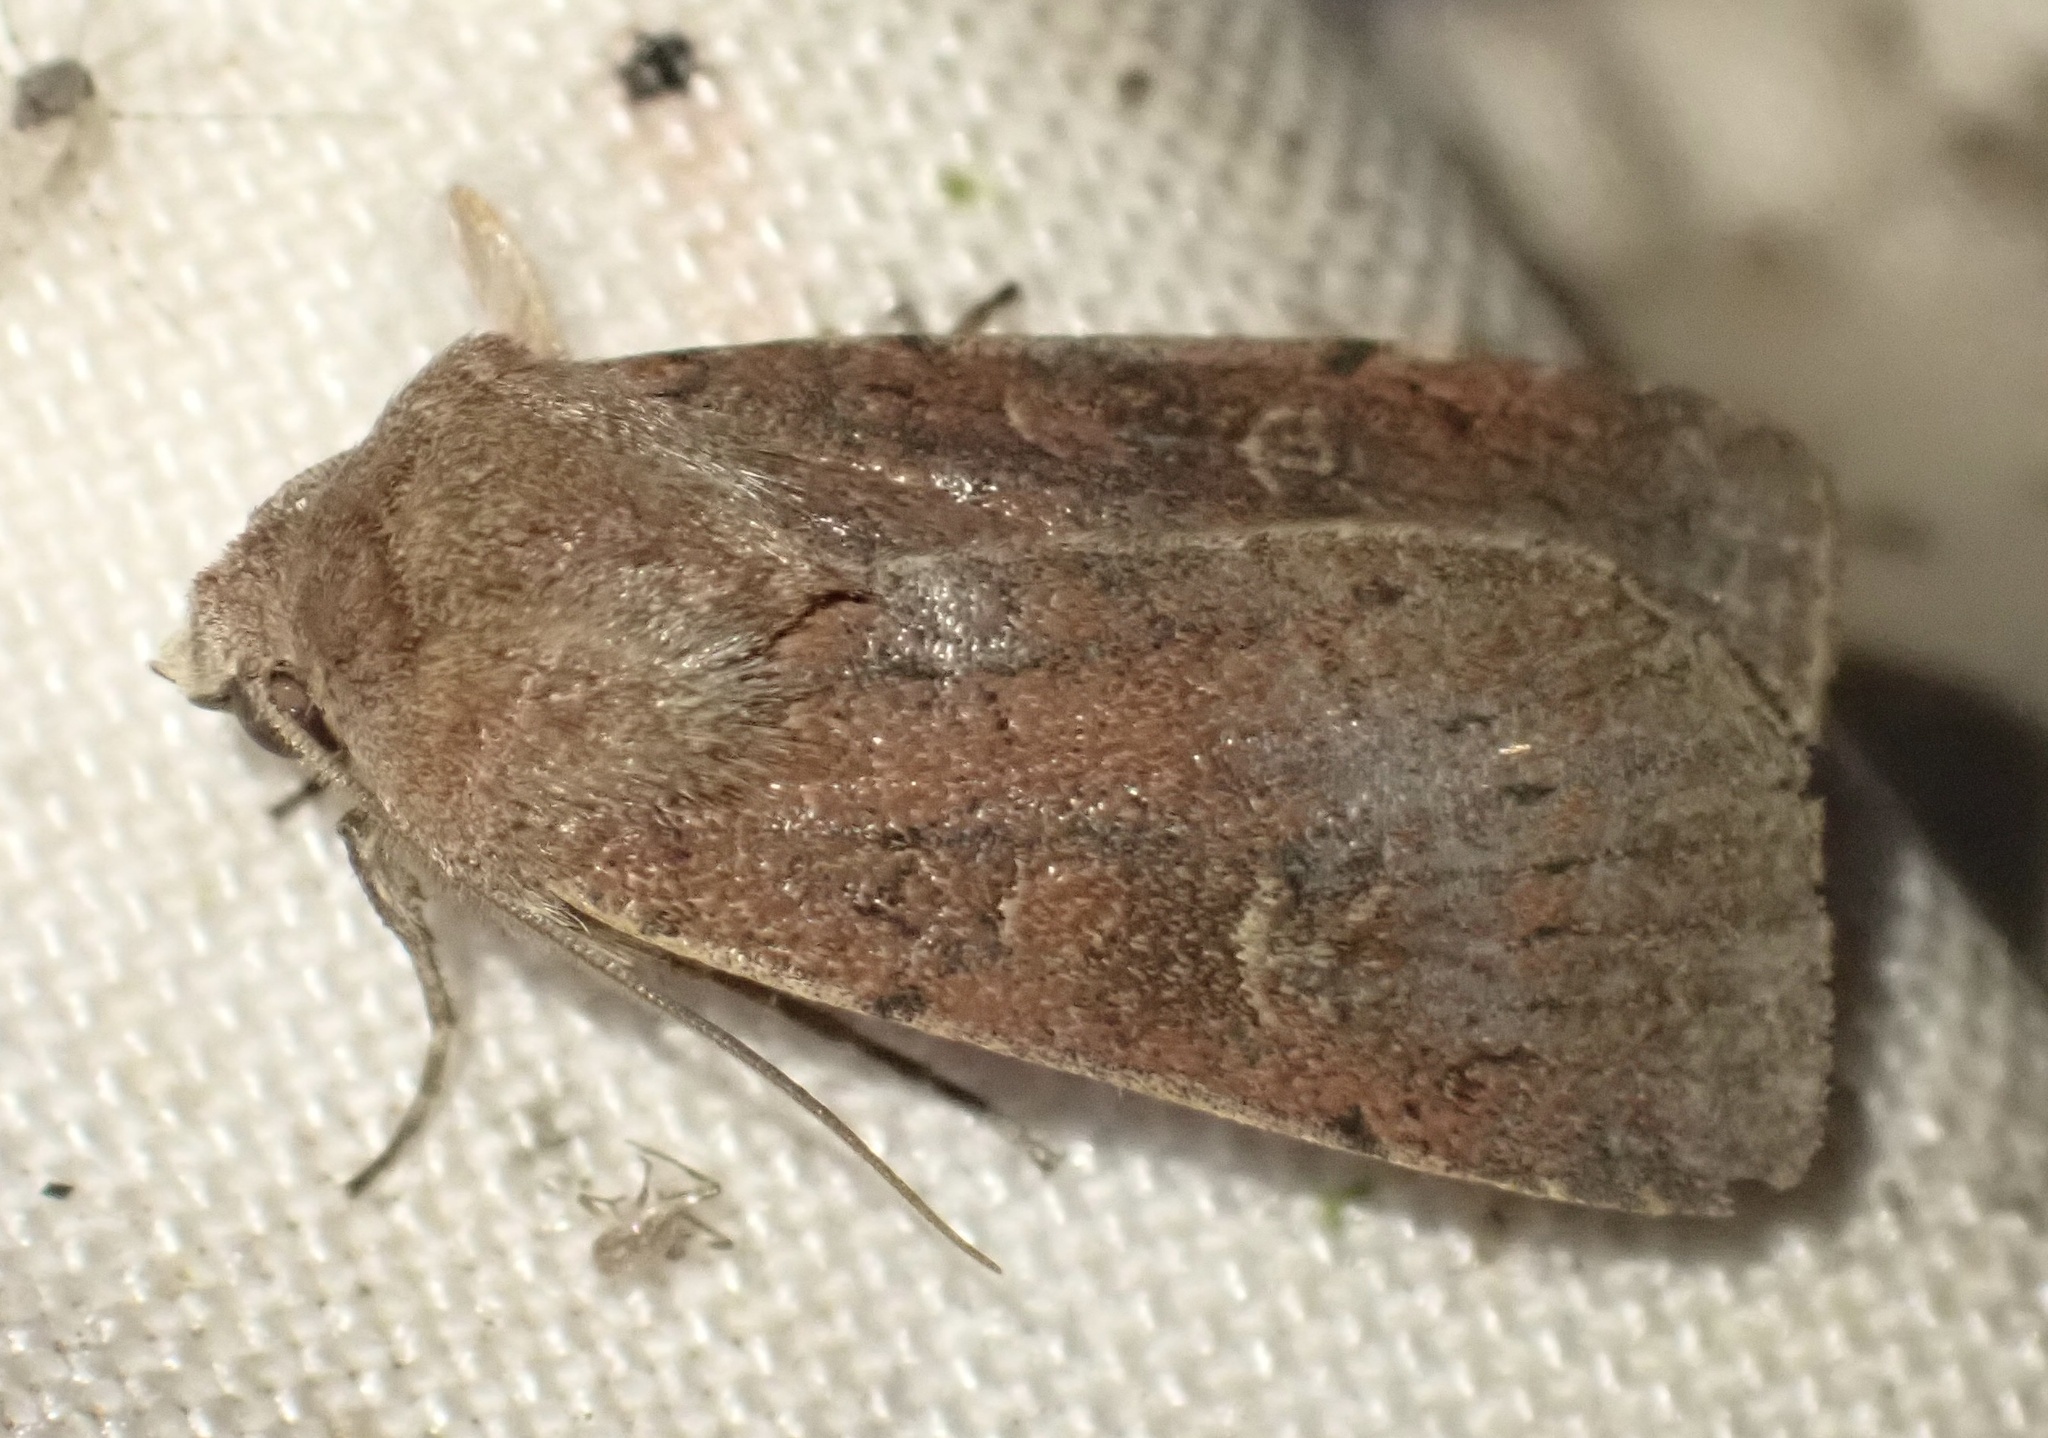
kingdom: Animalia
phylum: Arthropoda
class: Insecta
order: Lepidoptera
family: Noctuidae
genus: Xestia
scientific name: Xestia xanthographa
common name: Square-spot rustic
